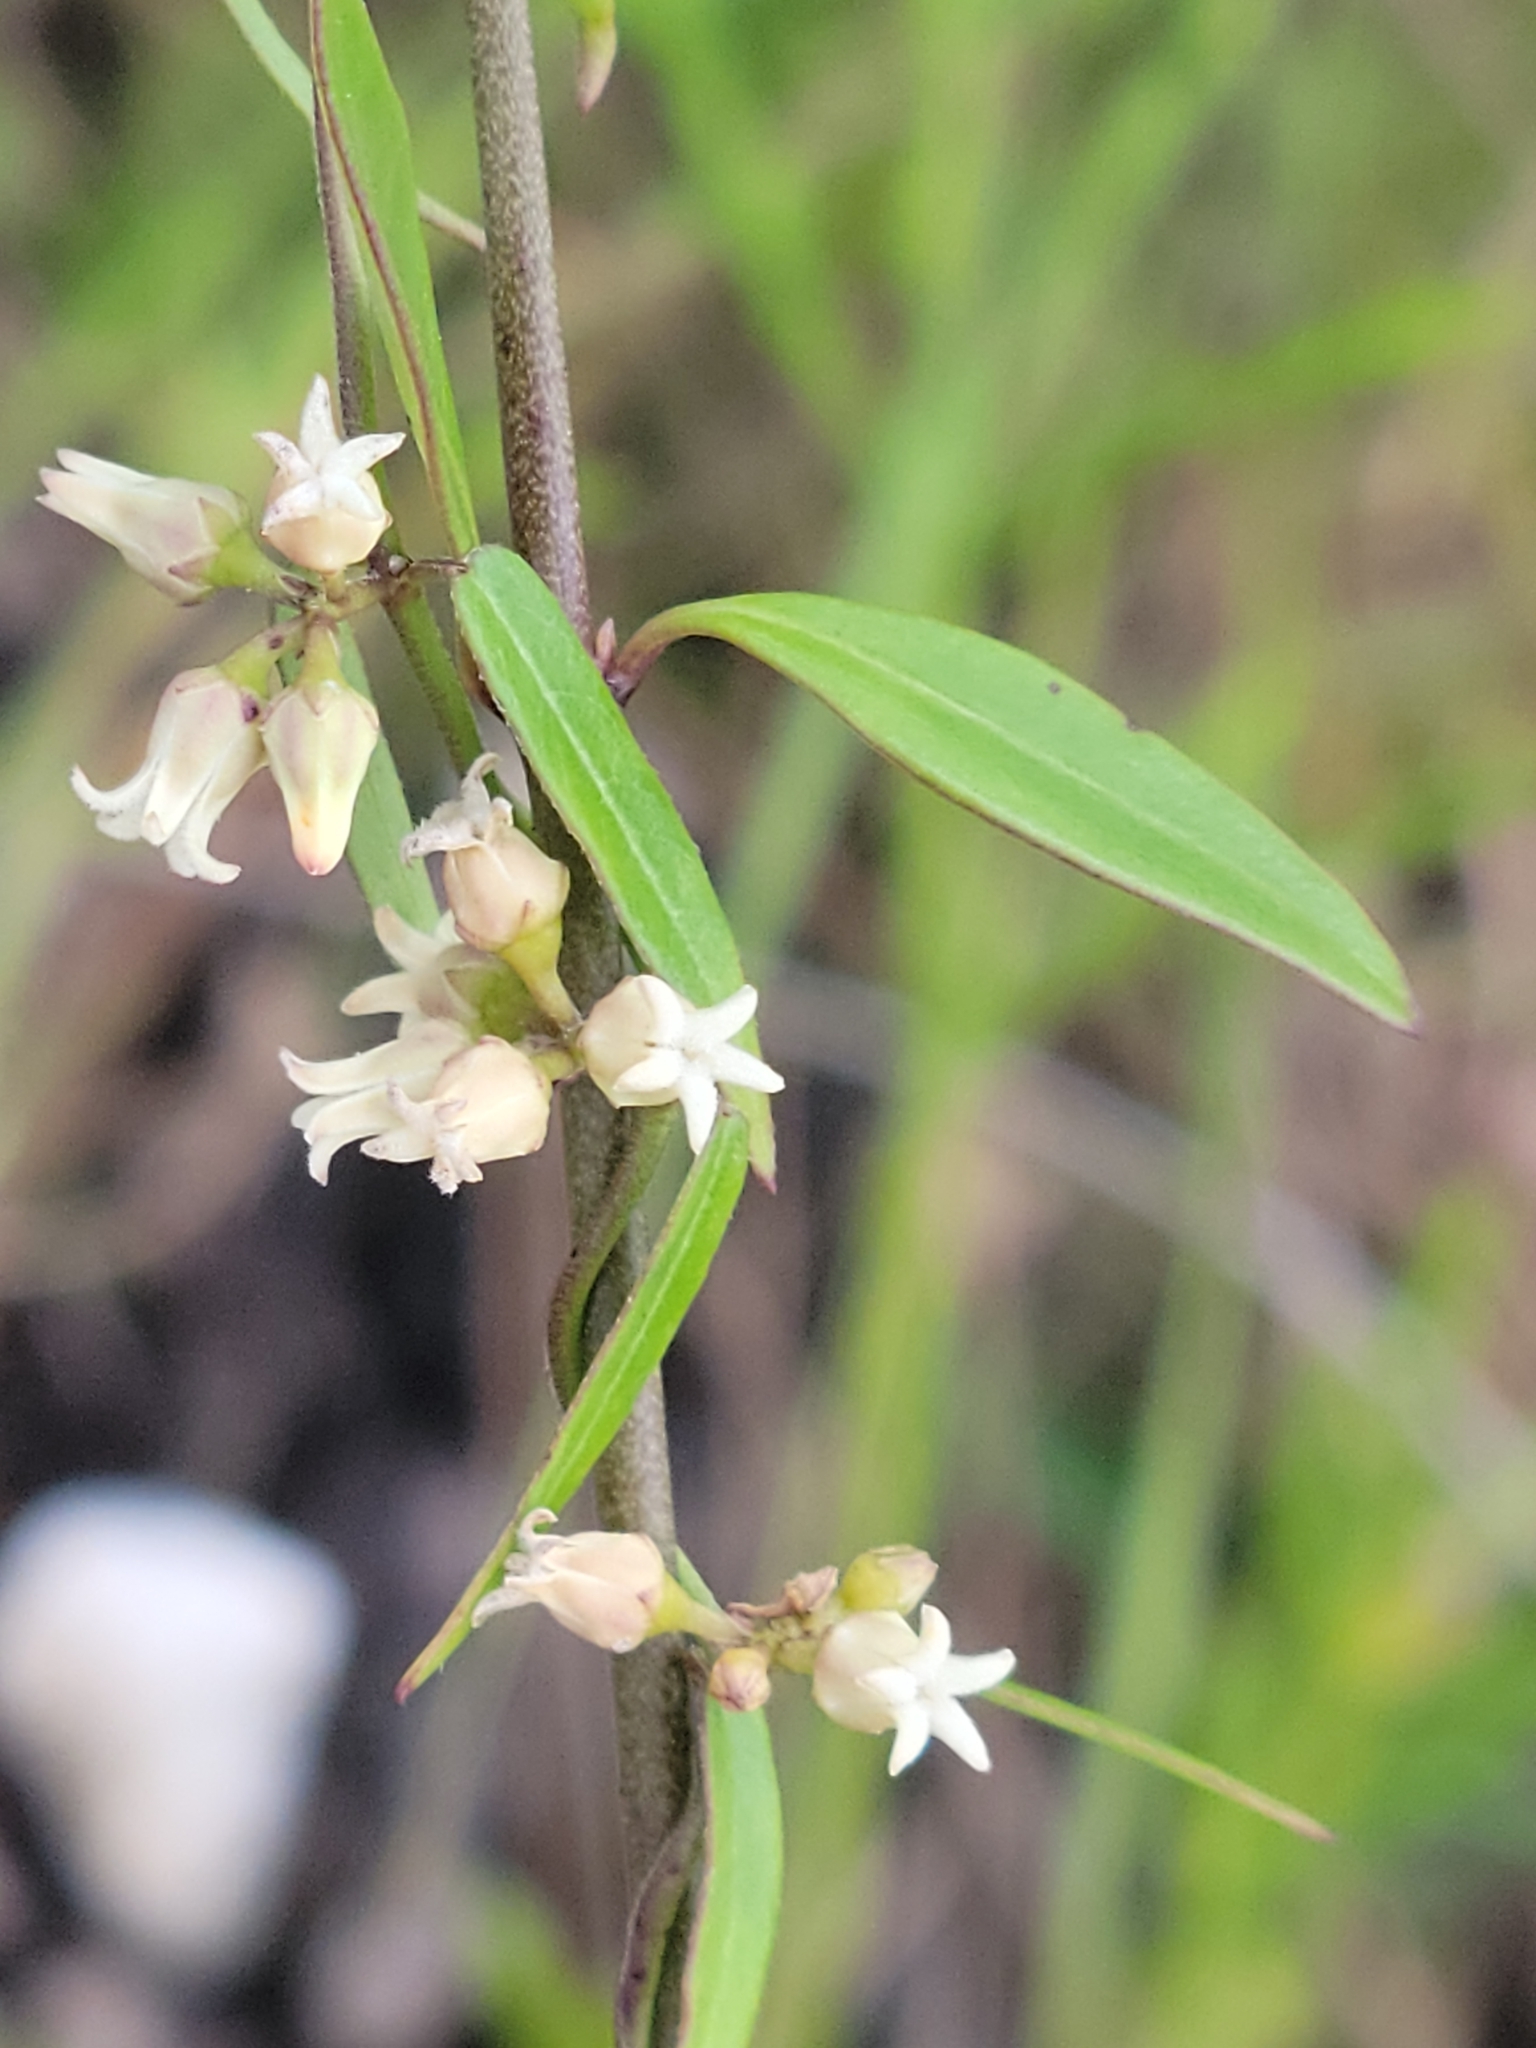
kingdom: Plantae
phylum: Tracheophyta
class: Magnoliopsida
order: Gentianales
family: Apocynaceae
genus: Metastelma
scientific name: Metastelma blodgettii
